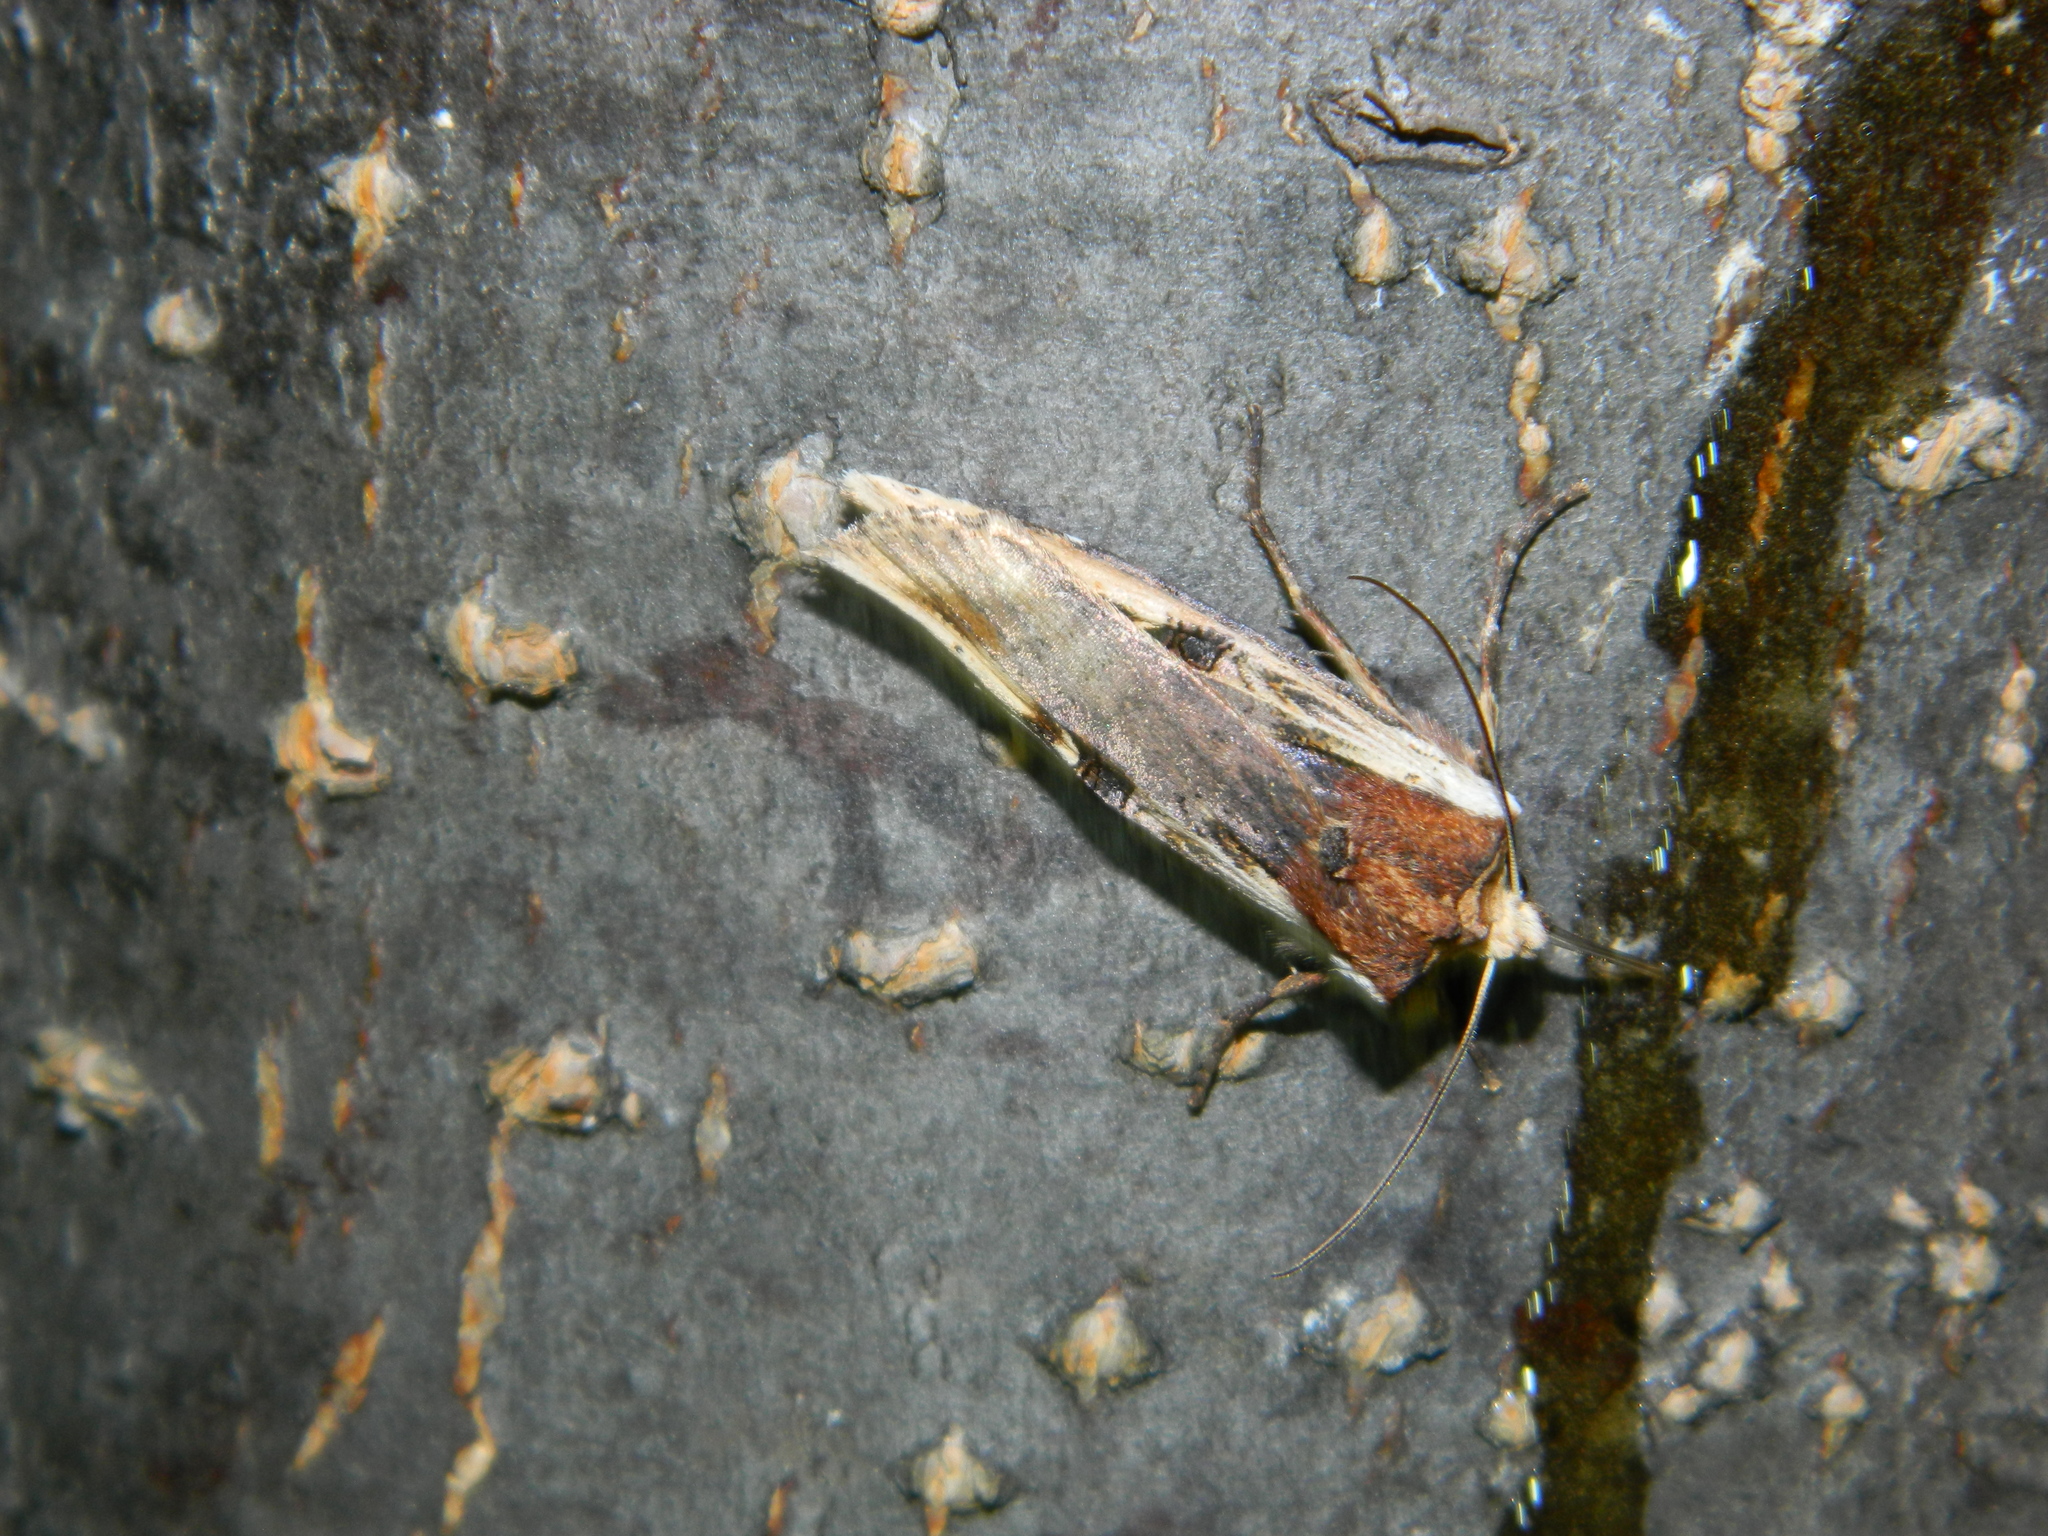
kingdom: Animalia
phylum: Arthropoda
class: Insecta
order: Lepidoptera
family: Noctuidae
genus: Xylena
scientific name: Xylena curvimacula
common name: Dot-and-dash swordgrass moth
